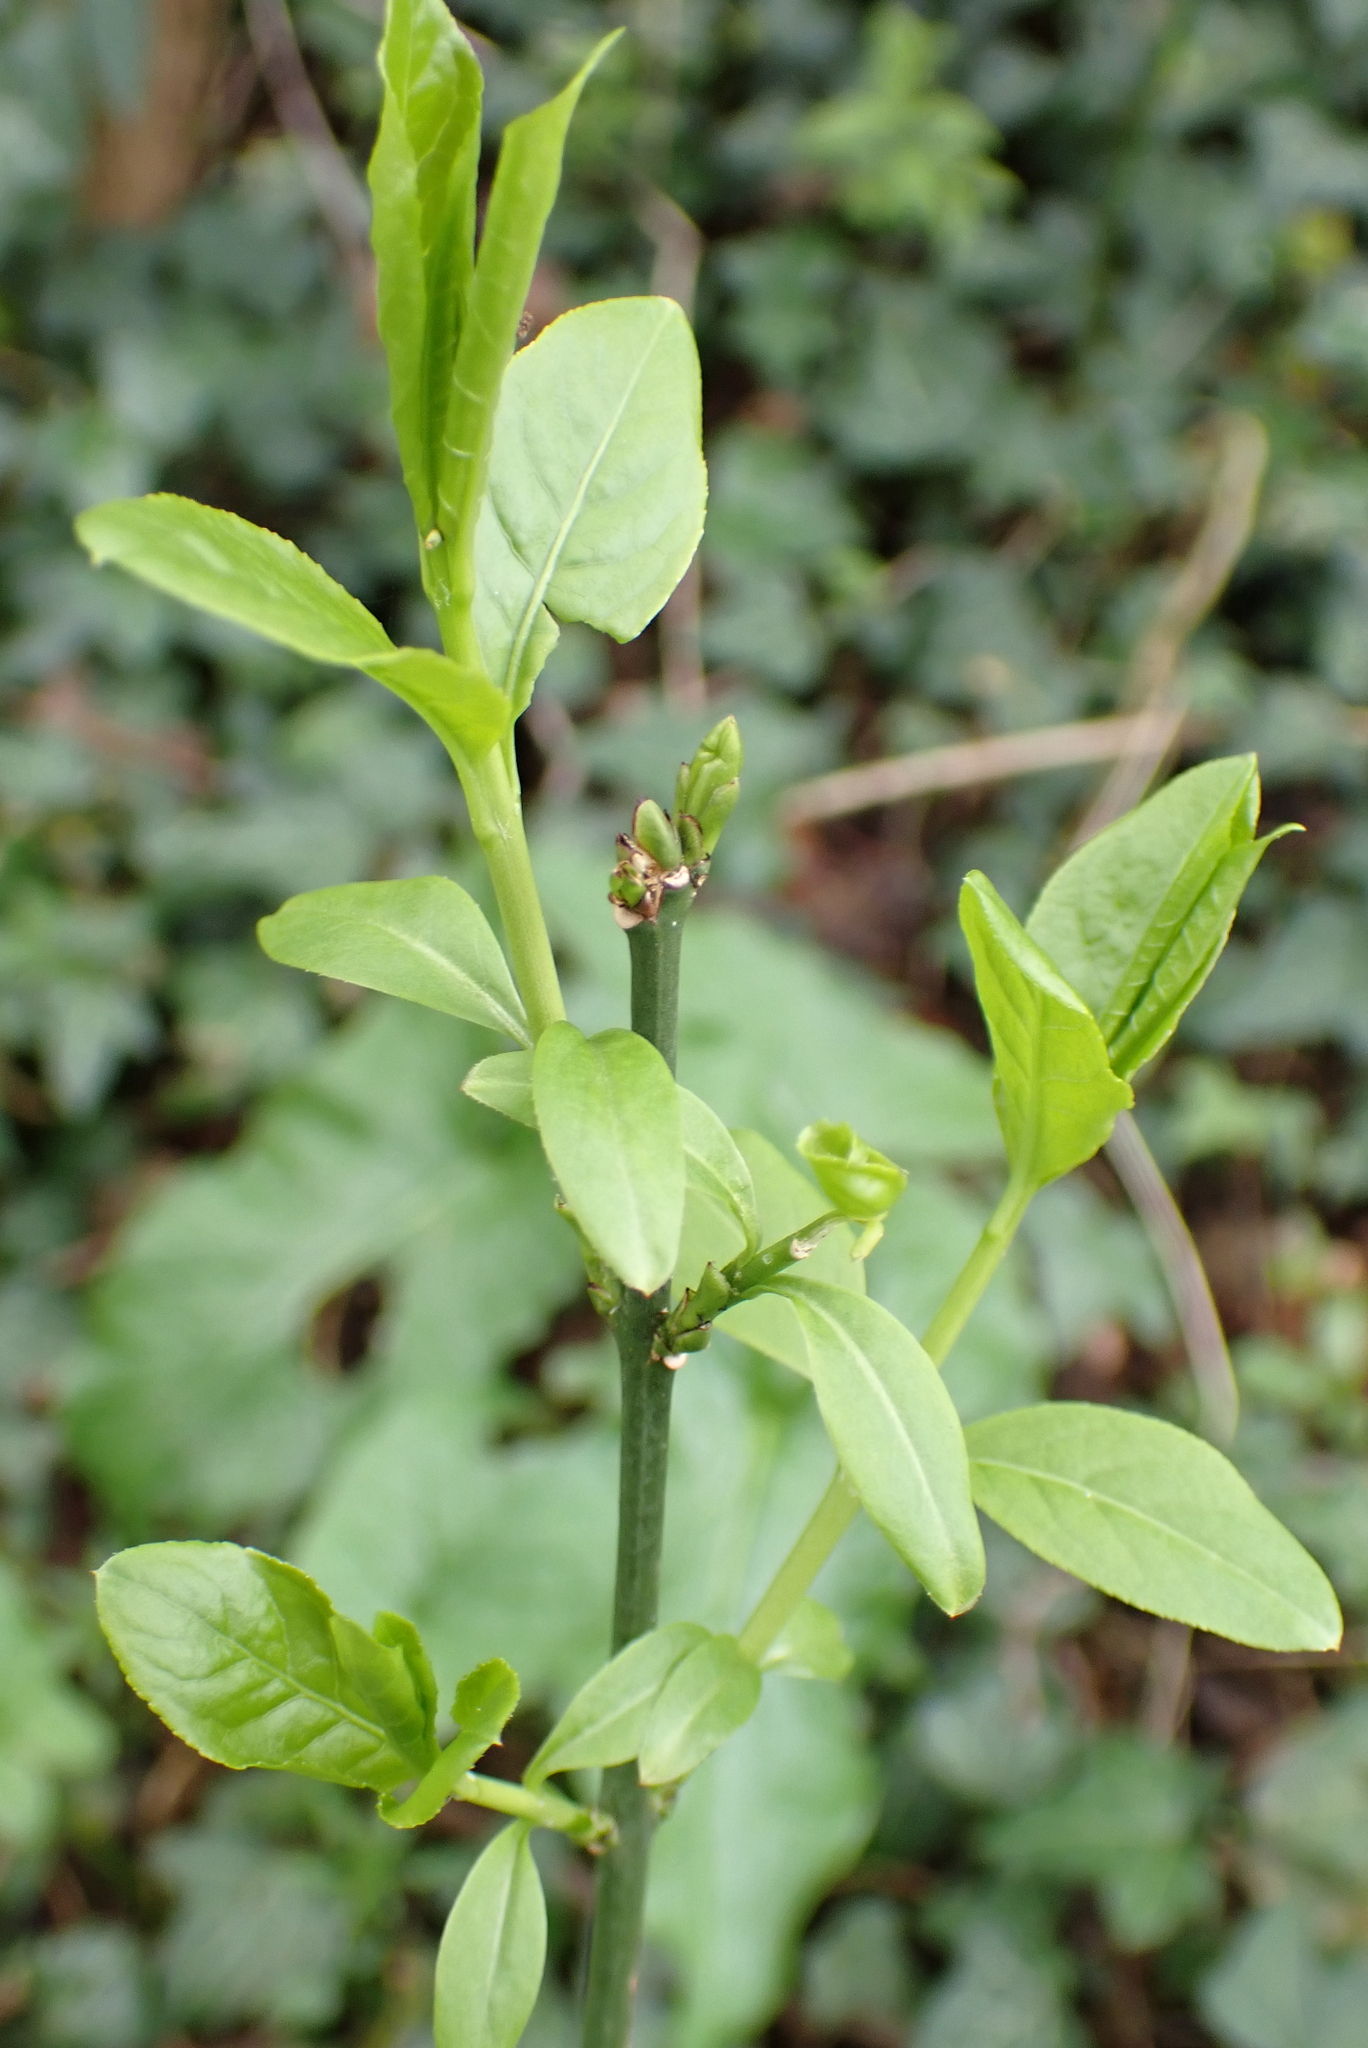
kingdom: Plantae
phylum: Tracheophyta
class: Magnoliopsida
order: Celastrales
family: Celastraceae
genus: Euonymus
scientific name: Euonymus europaeus
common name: Spindle
